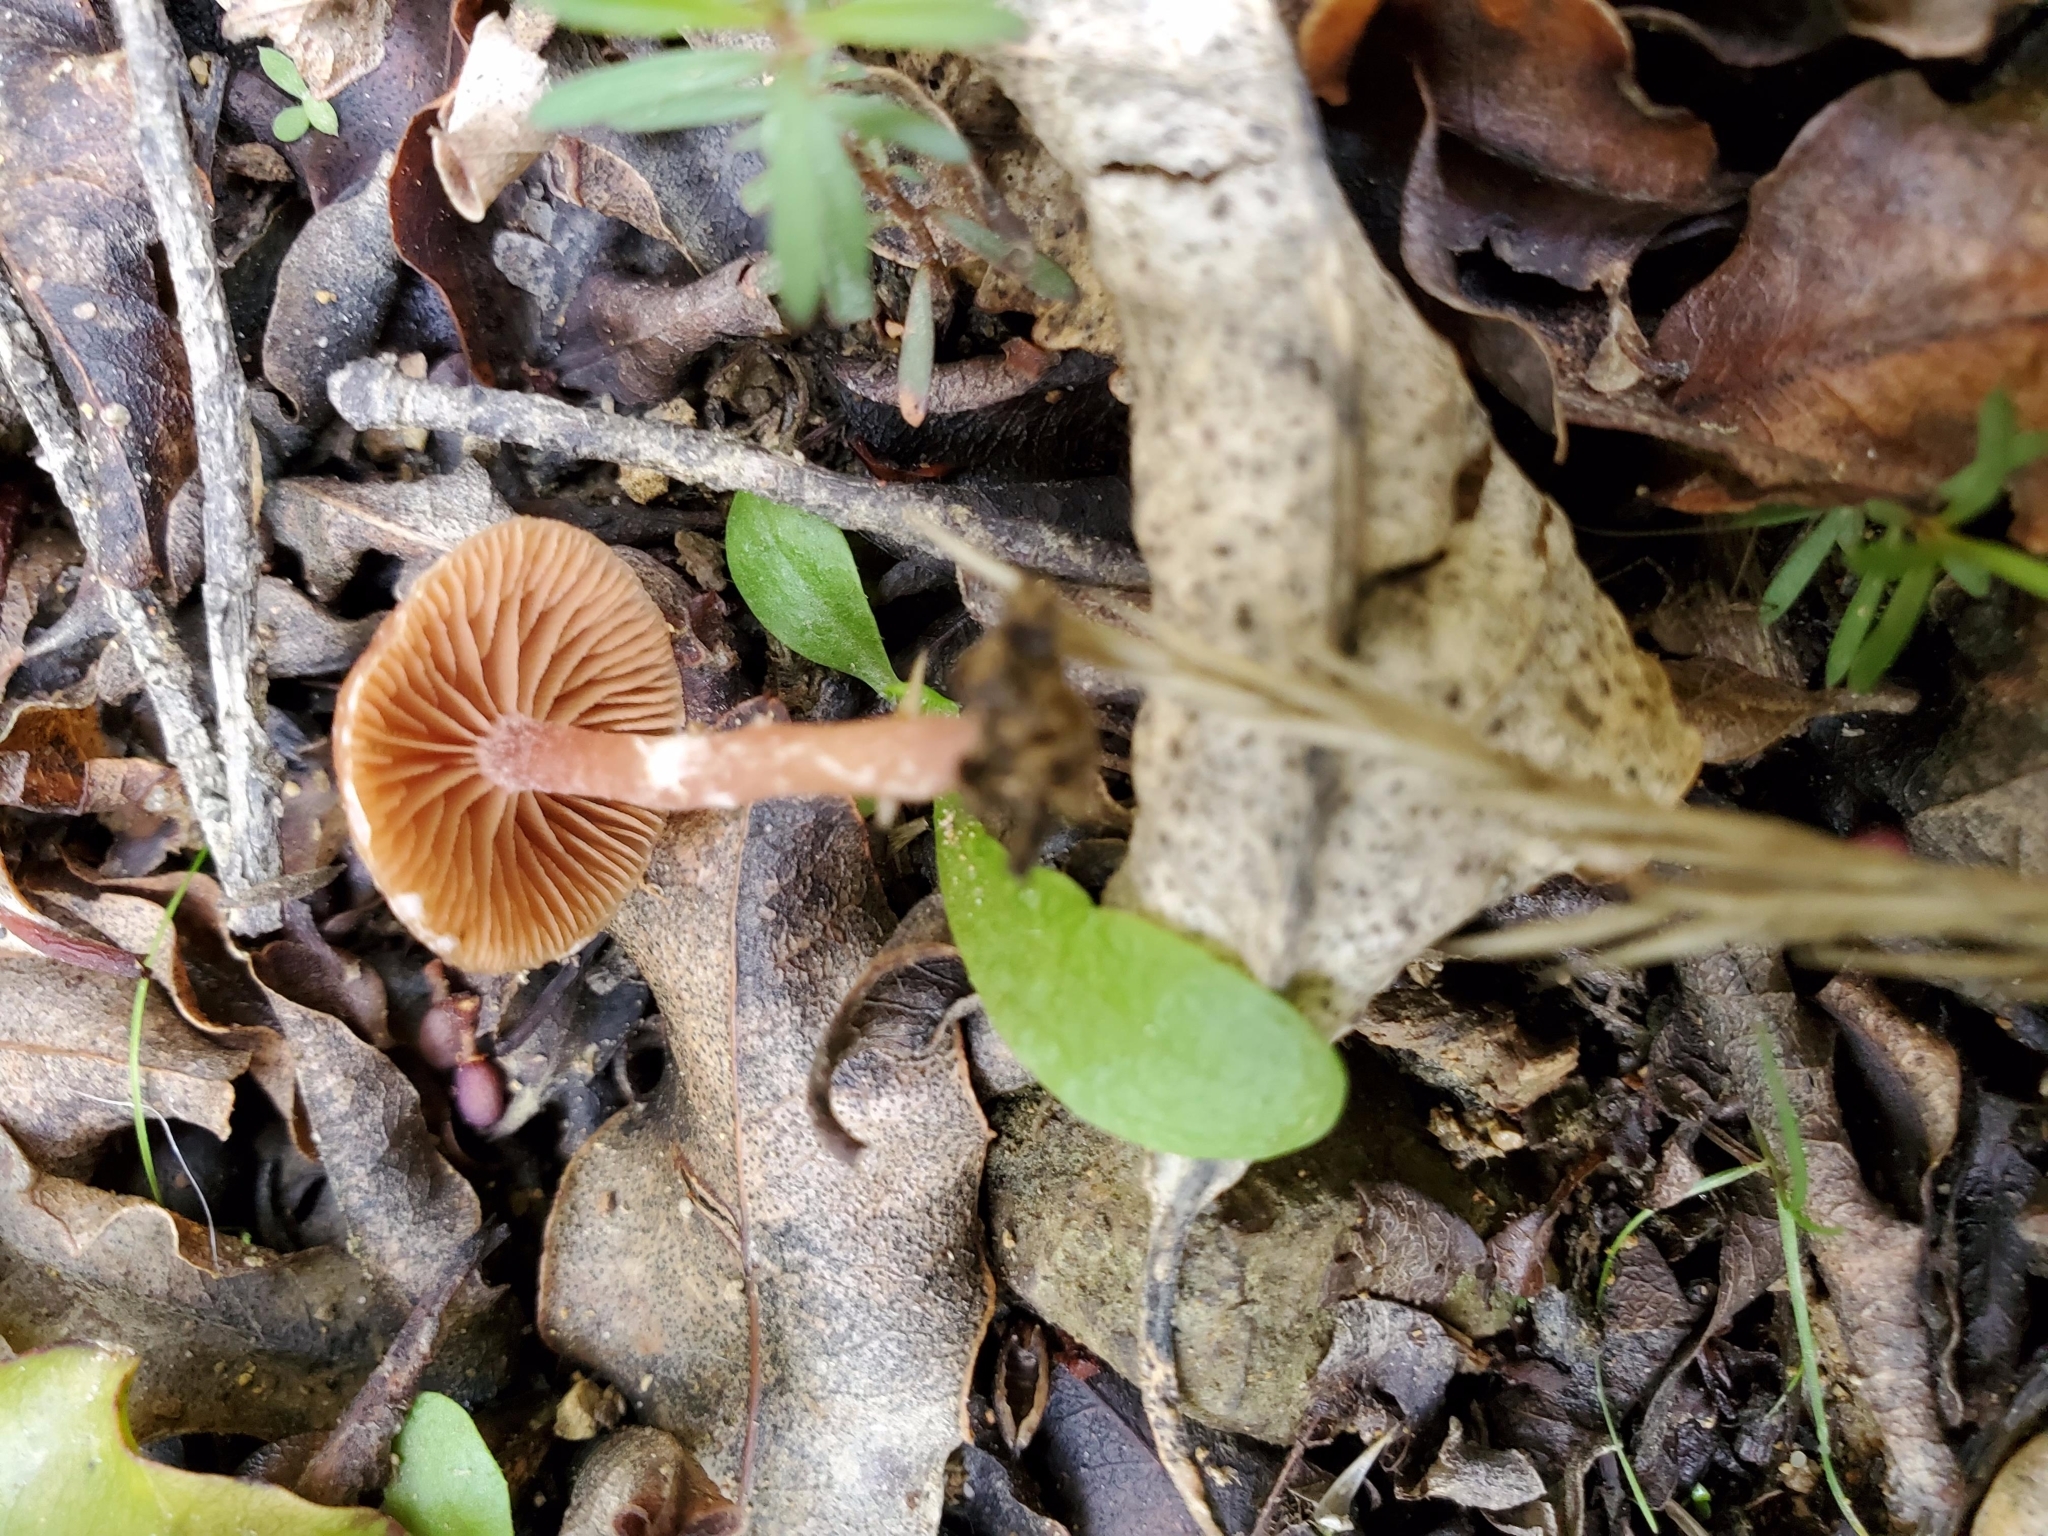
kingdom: Fungi
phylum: Basidiomycota
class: Agaricomycetes
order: Agaricales
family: Tubariaceae
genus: Tubaria
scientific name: Tubaria furfuracea
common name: Scurfy twiglet
